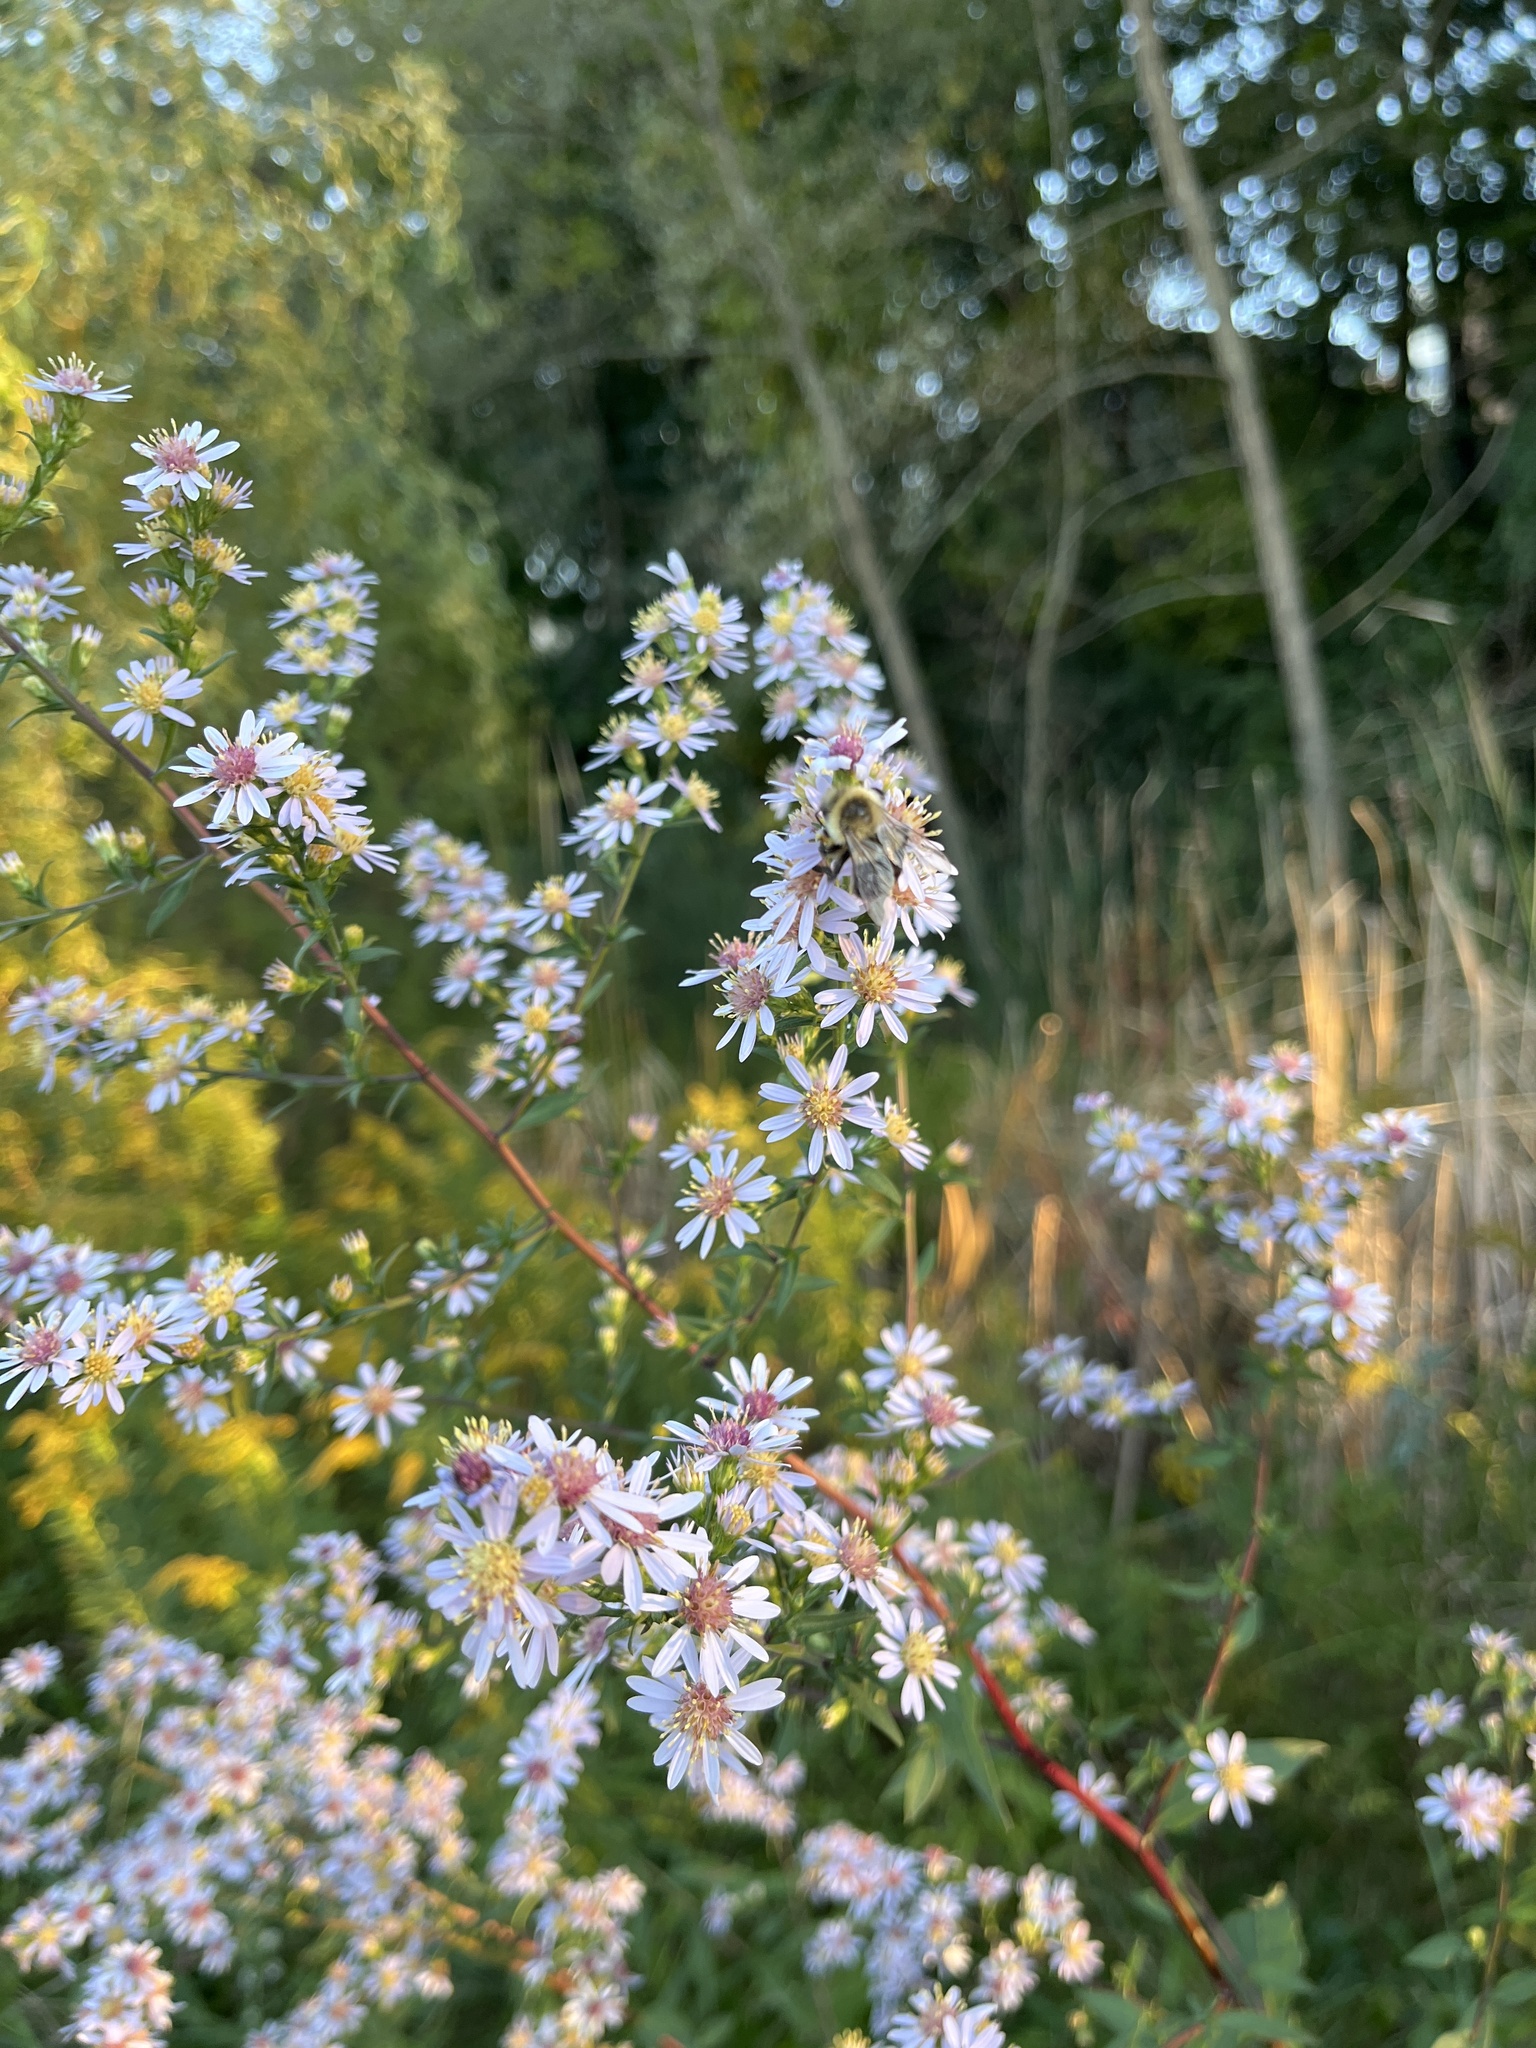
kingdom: Animalia
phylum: Arthropoda
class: Insecta
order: Hymenoptera
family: Apidae
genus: Bombus
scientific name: Bombus impatiens
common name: Common eastern bumble bee
